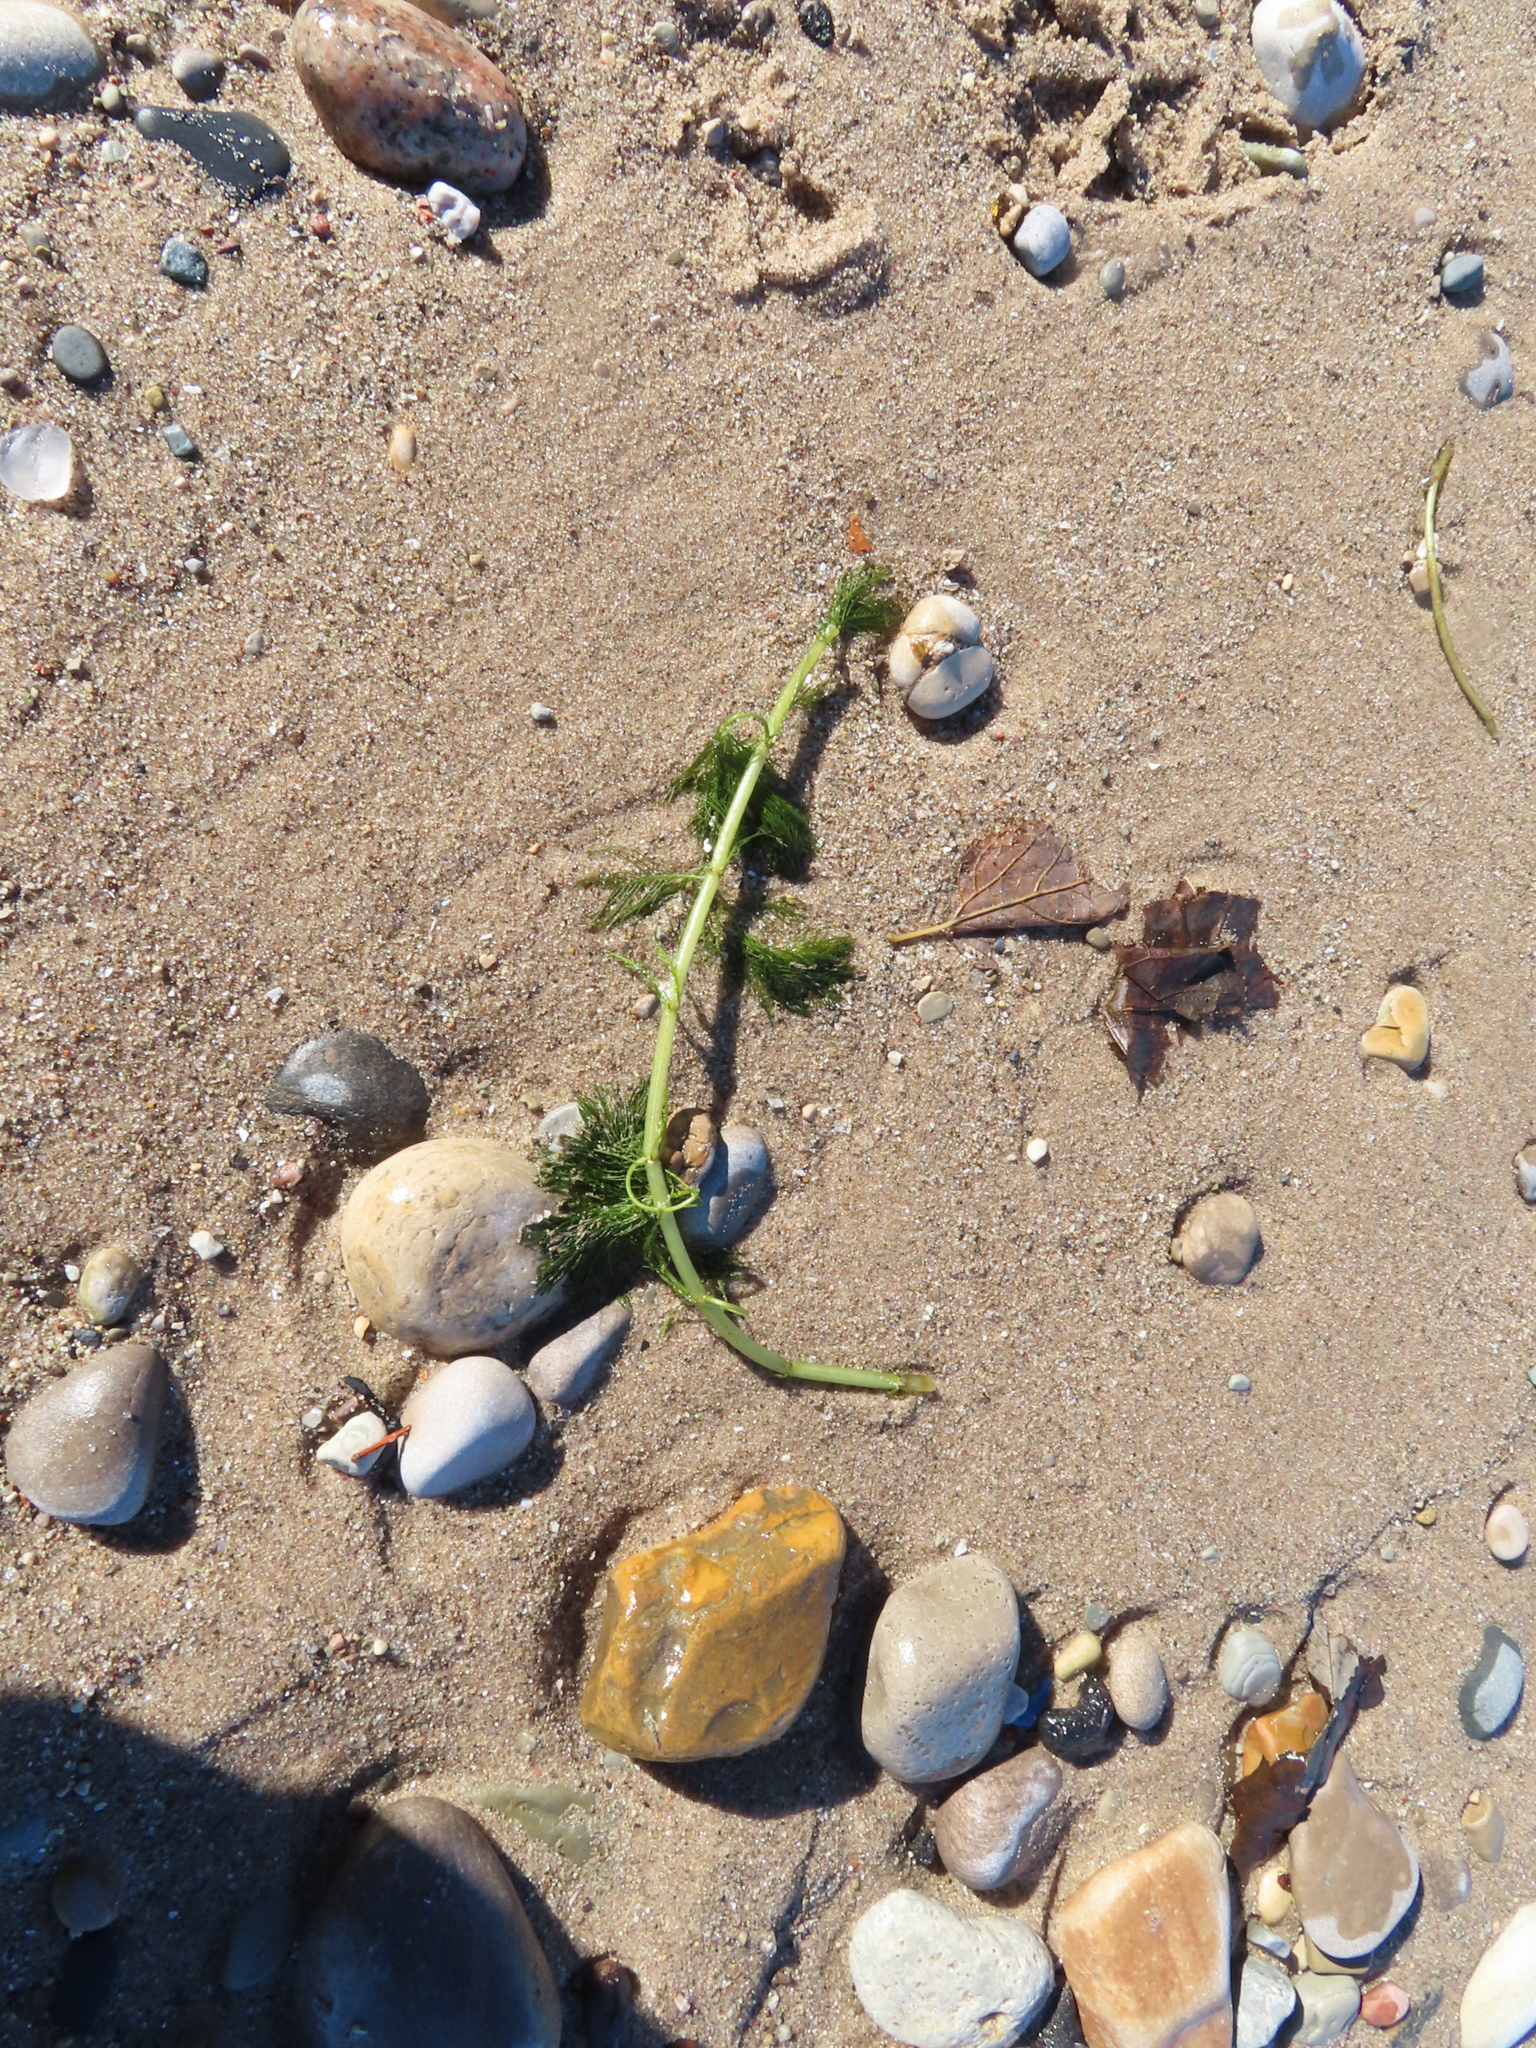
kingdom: Plantae
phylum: Tracheophyta
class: Magnoliopsida
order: Saxifragales
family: Haloragaceae
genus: Myriophyllum
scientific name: Myriophyllum spicatum
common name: Spiked water-milfoil
